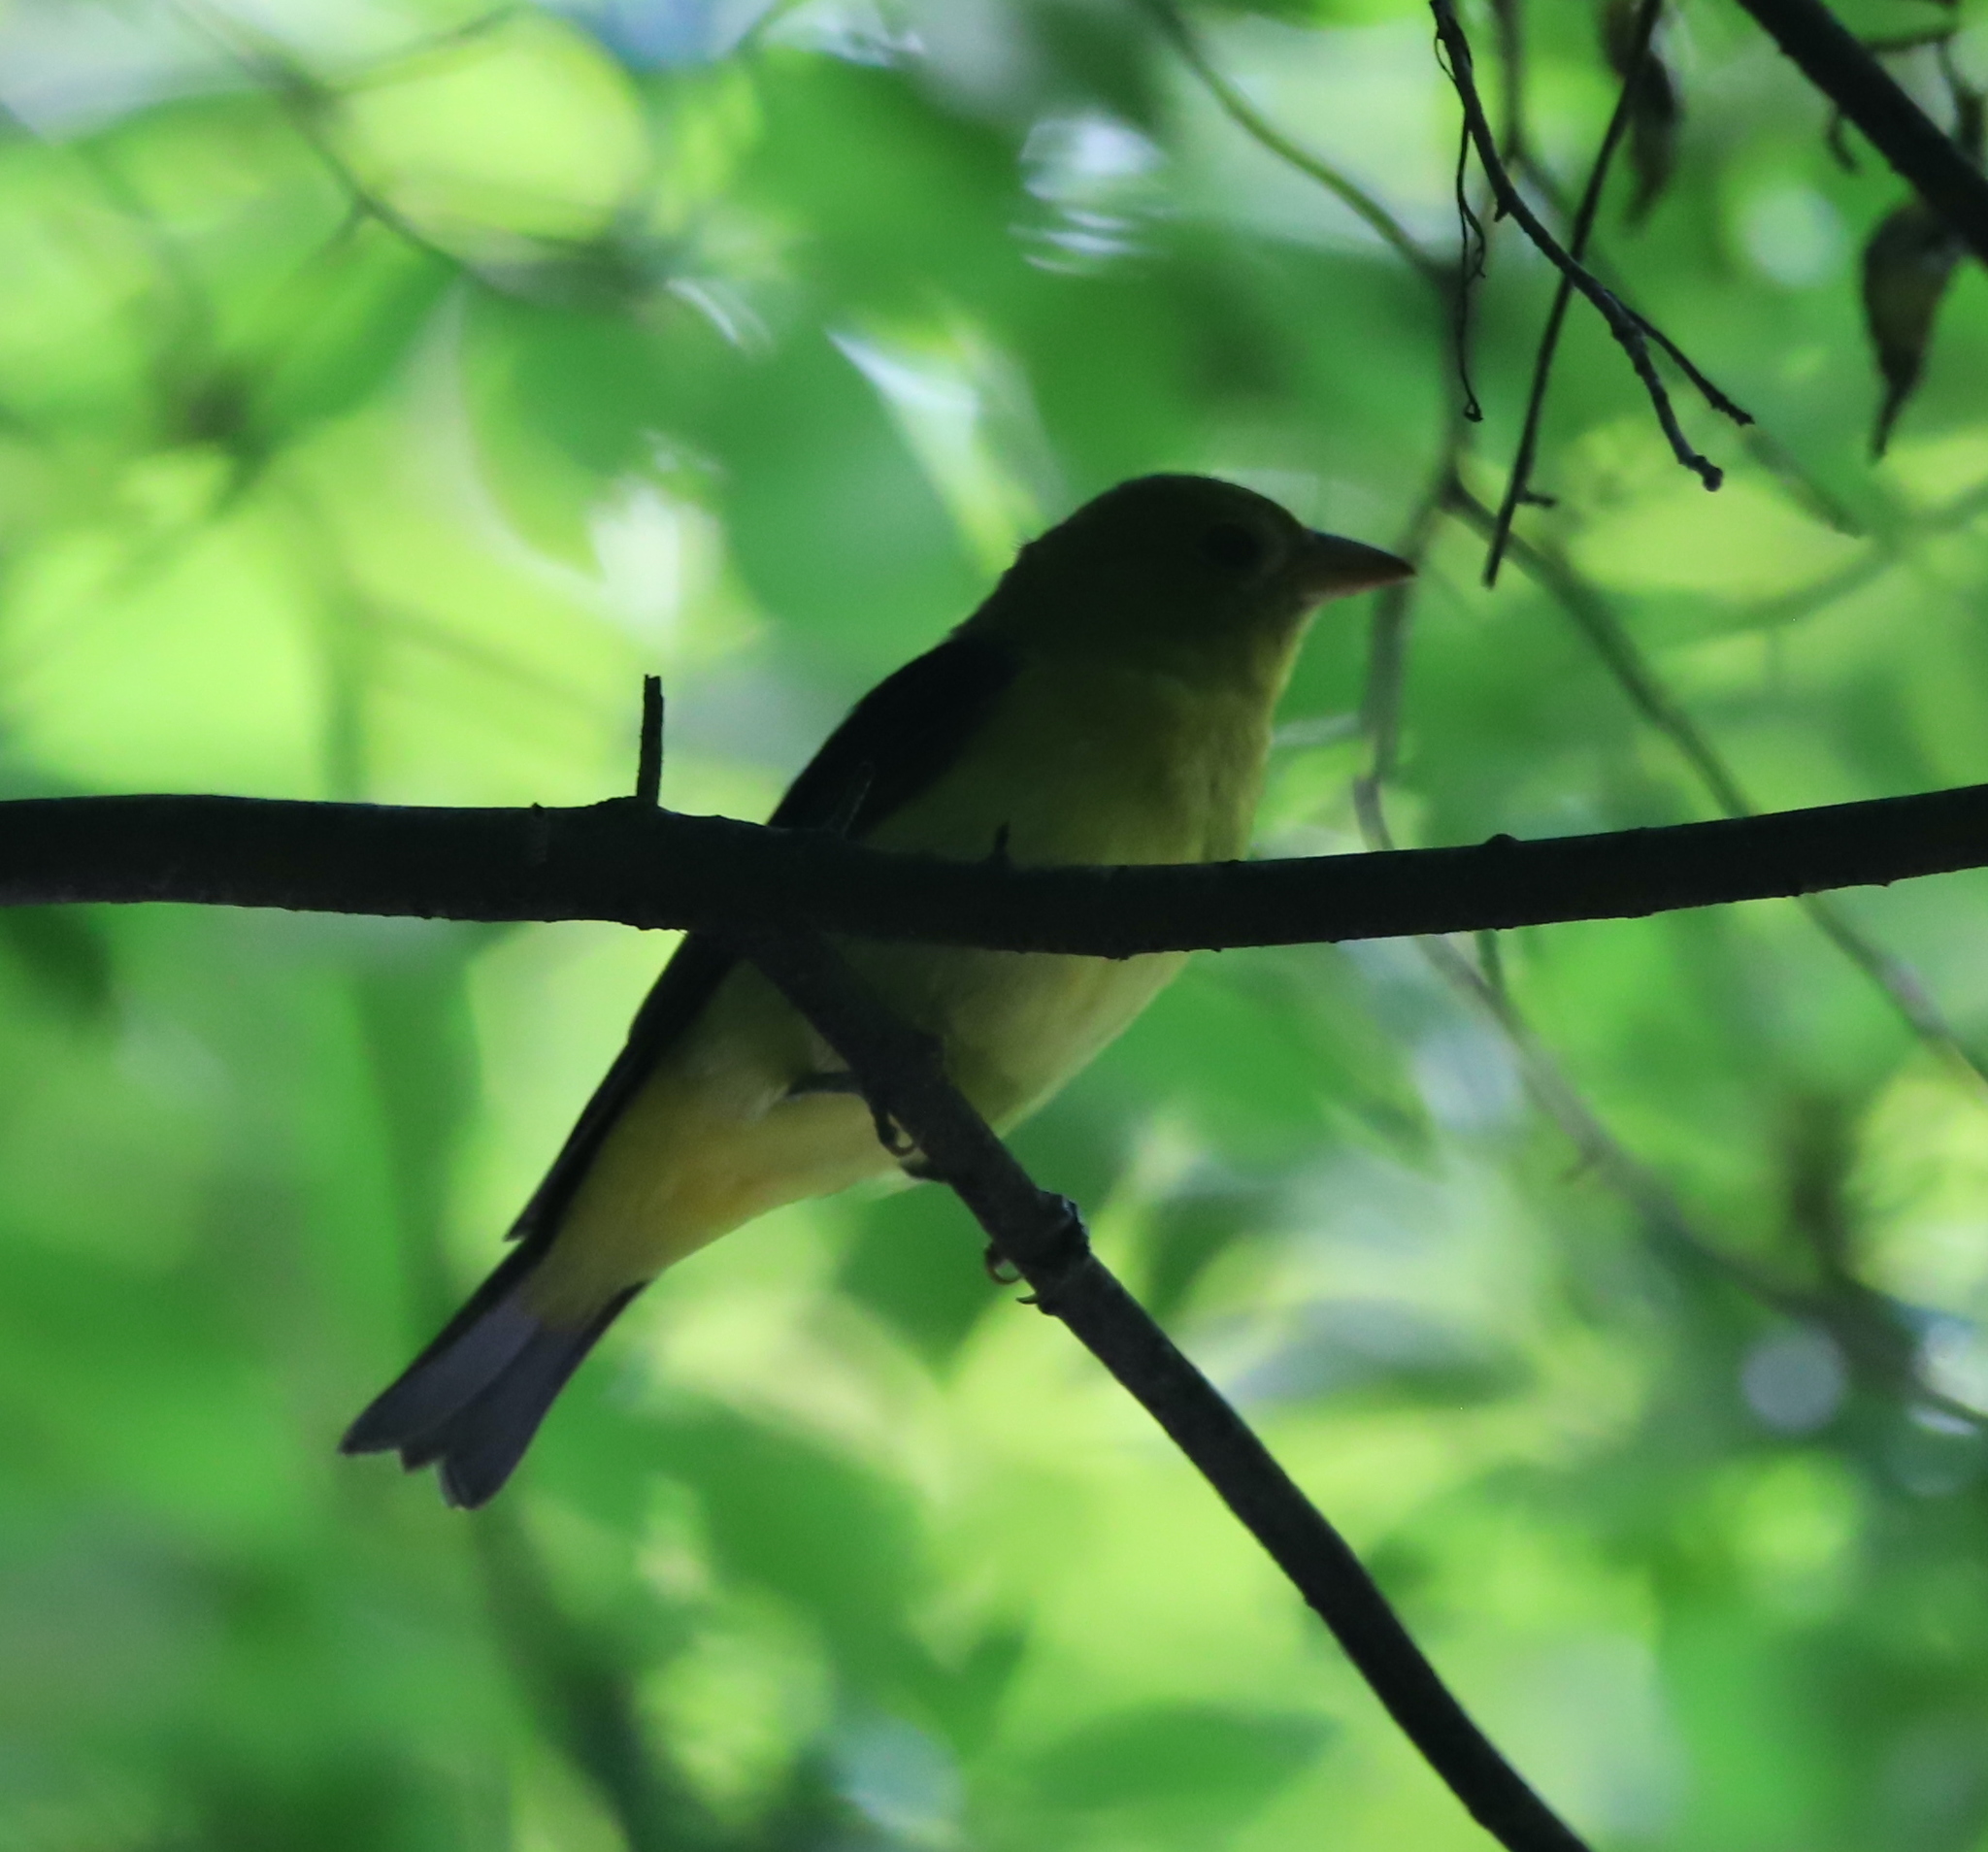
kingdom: Animalia
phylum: Chordata
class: Aves
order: Passeriformes
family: Cardinalidae
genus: Piranga
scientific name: Piranga olivacea
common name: Scarlet tanager
